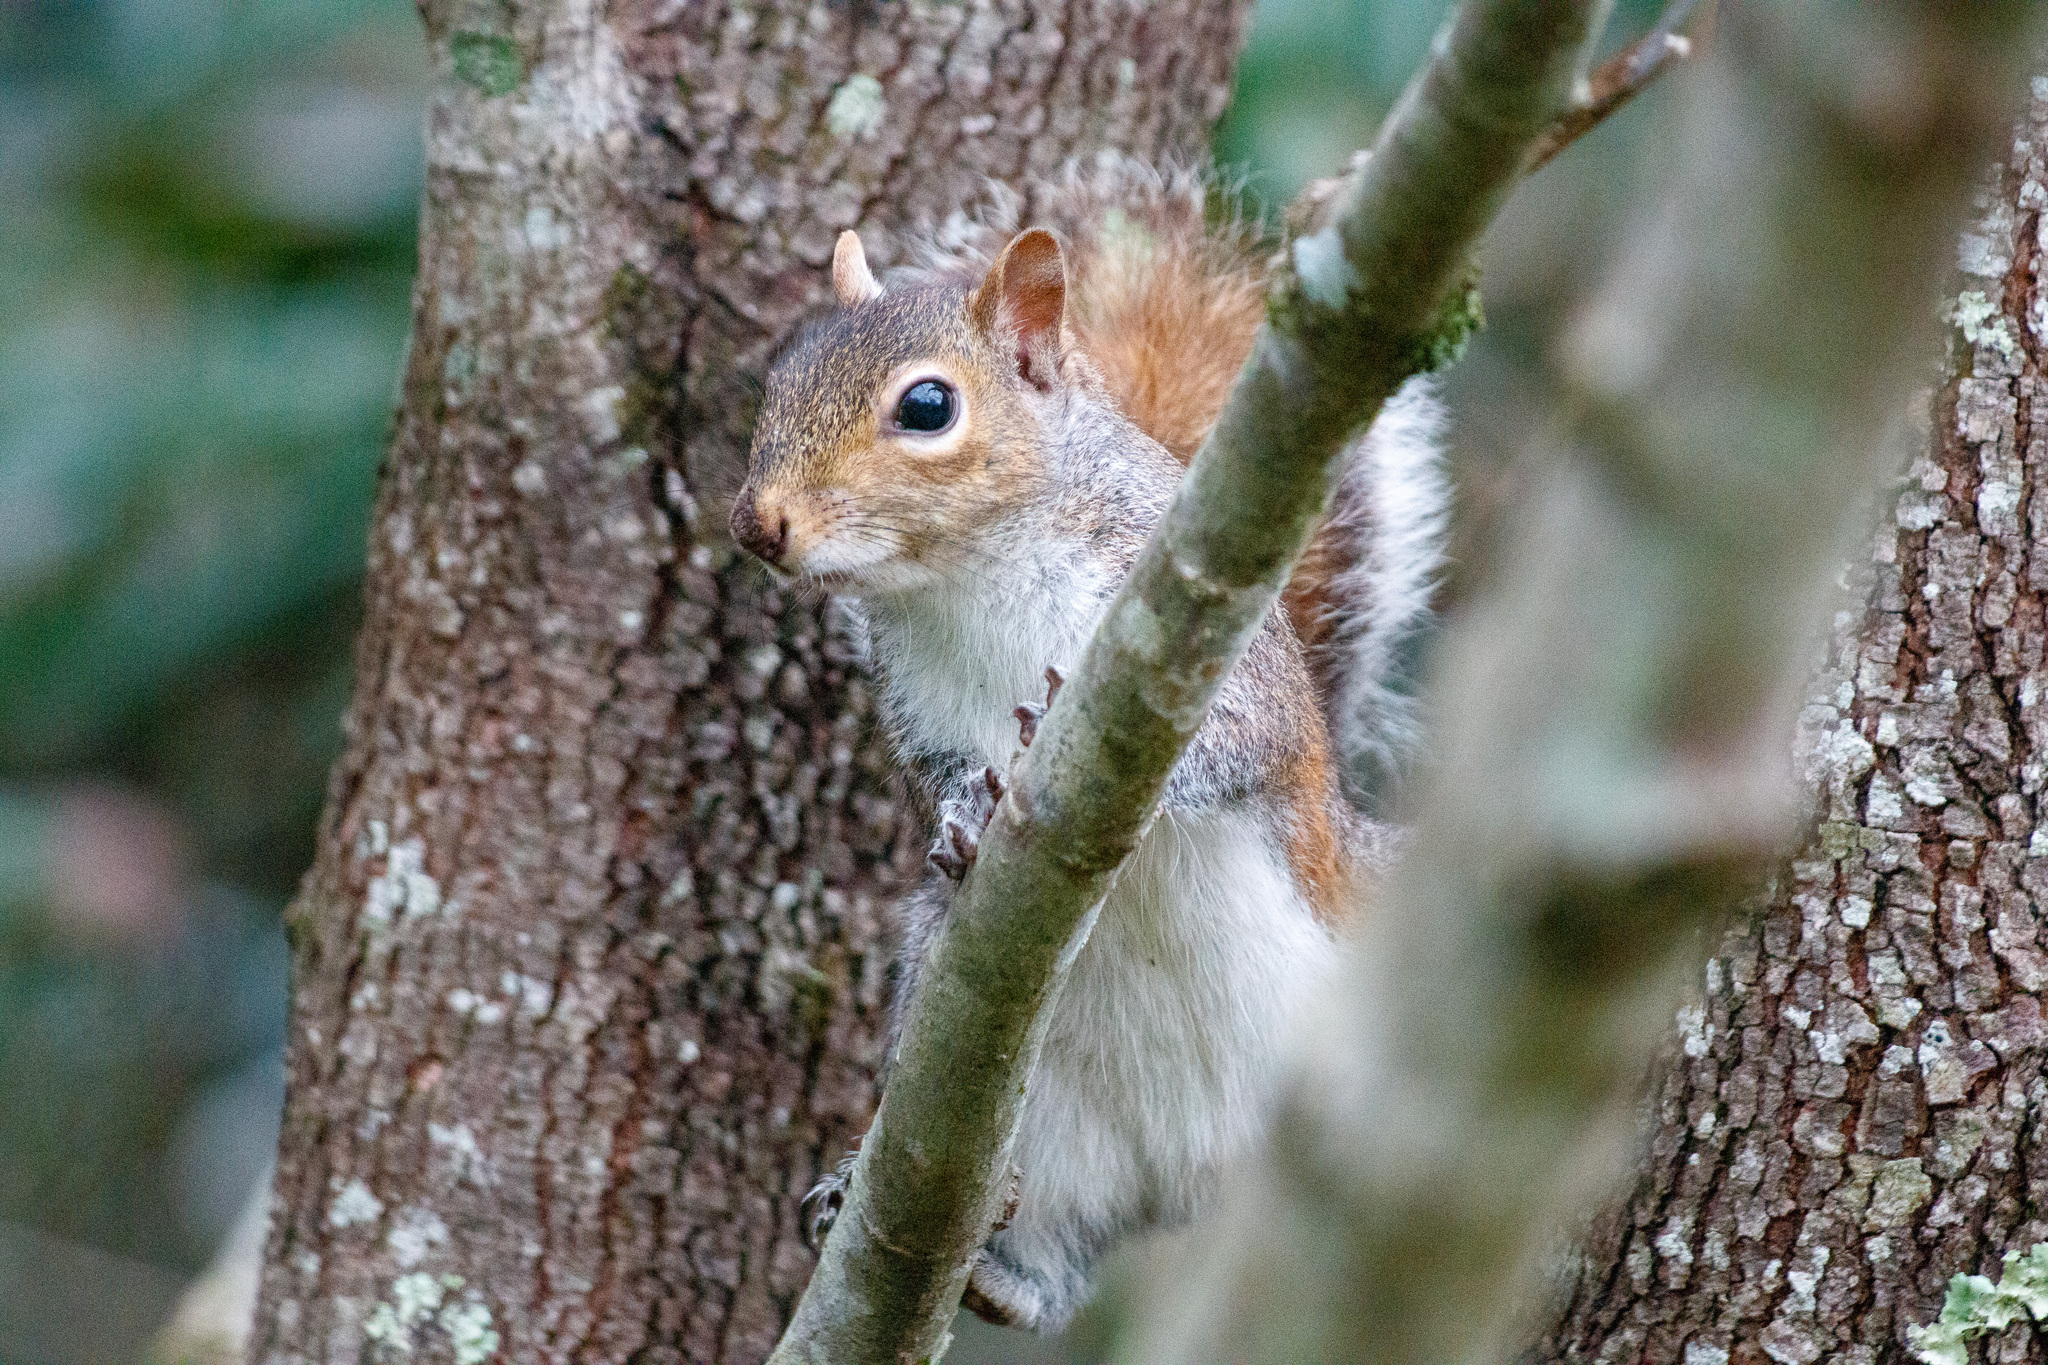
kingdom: Animalia
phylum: Chordata
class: Mammalia
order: Rodentia
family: Sciuridae
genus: Sciurus
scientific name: Sciurus carolinensis
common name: Eastern gray squirrel
